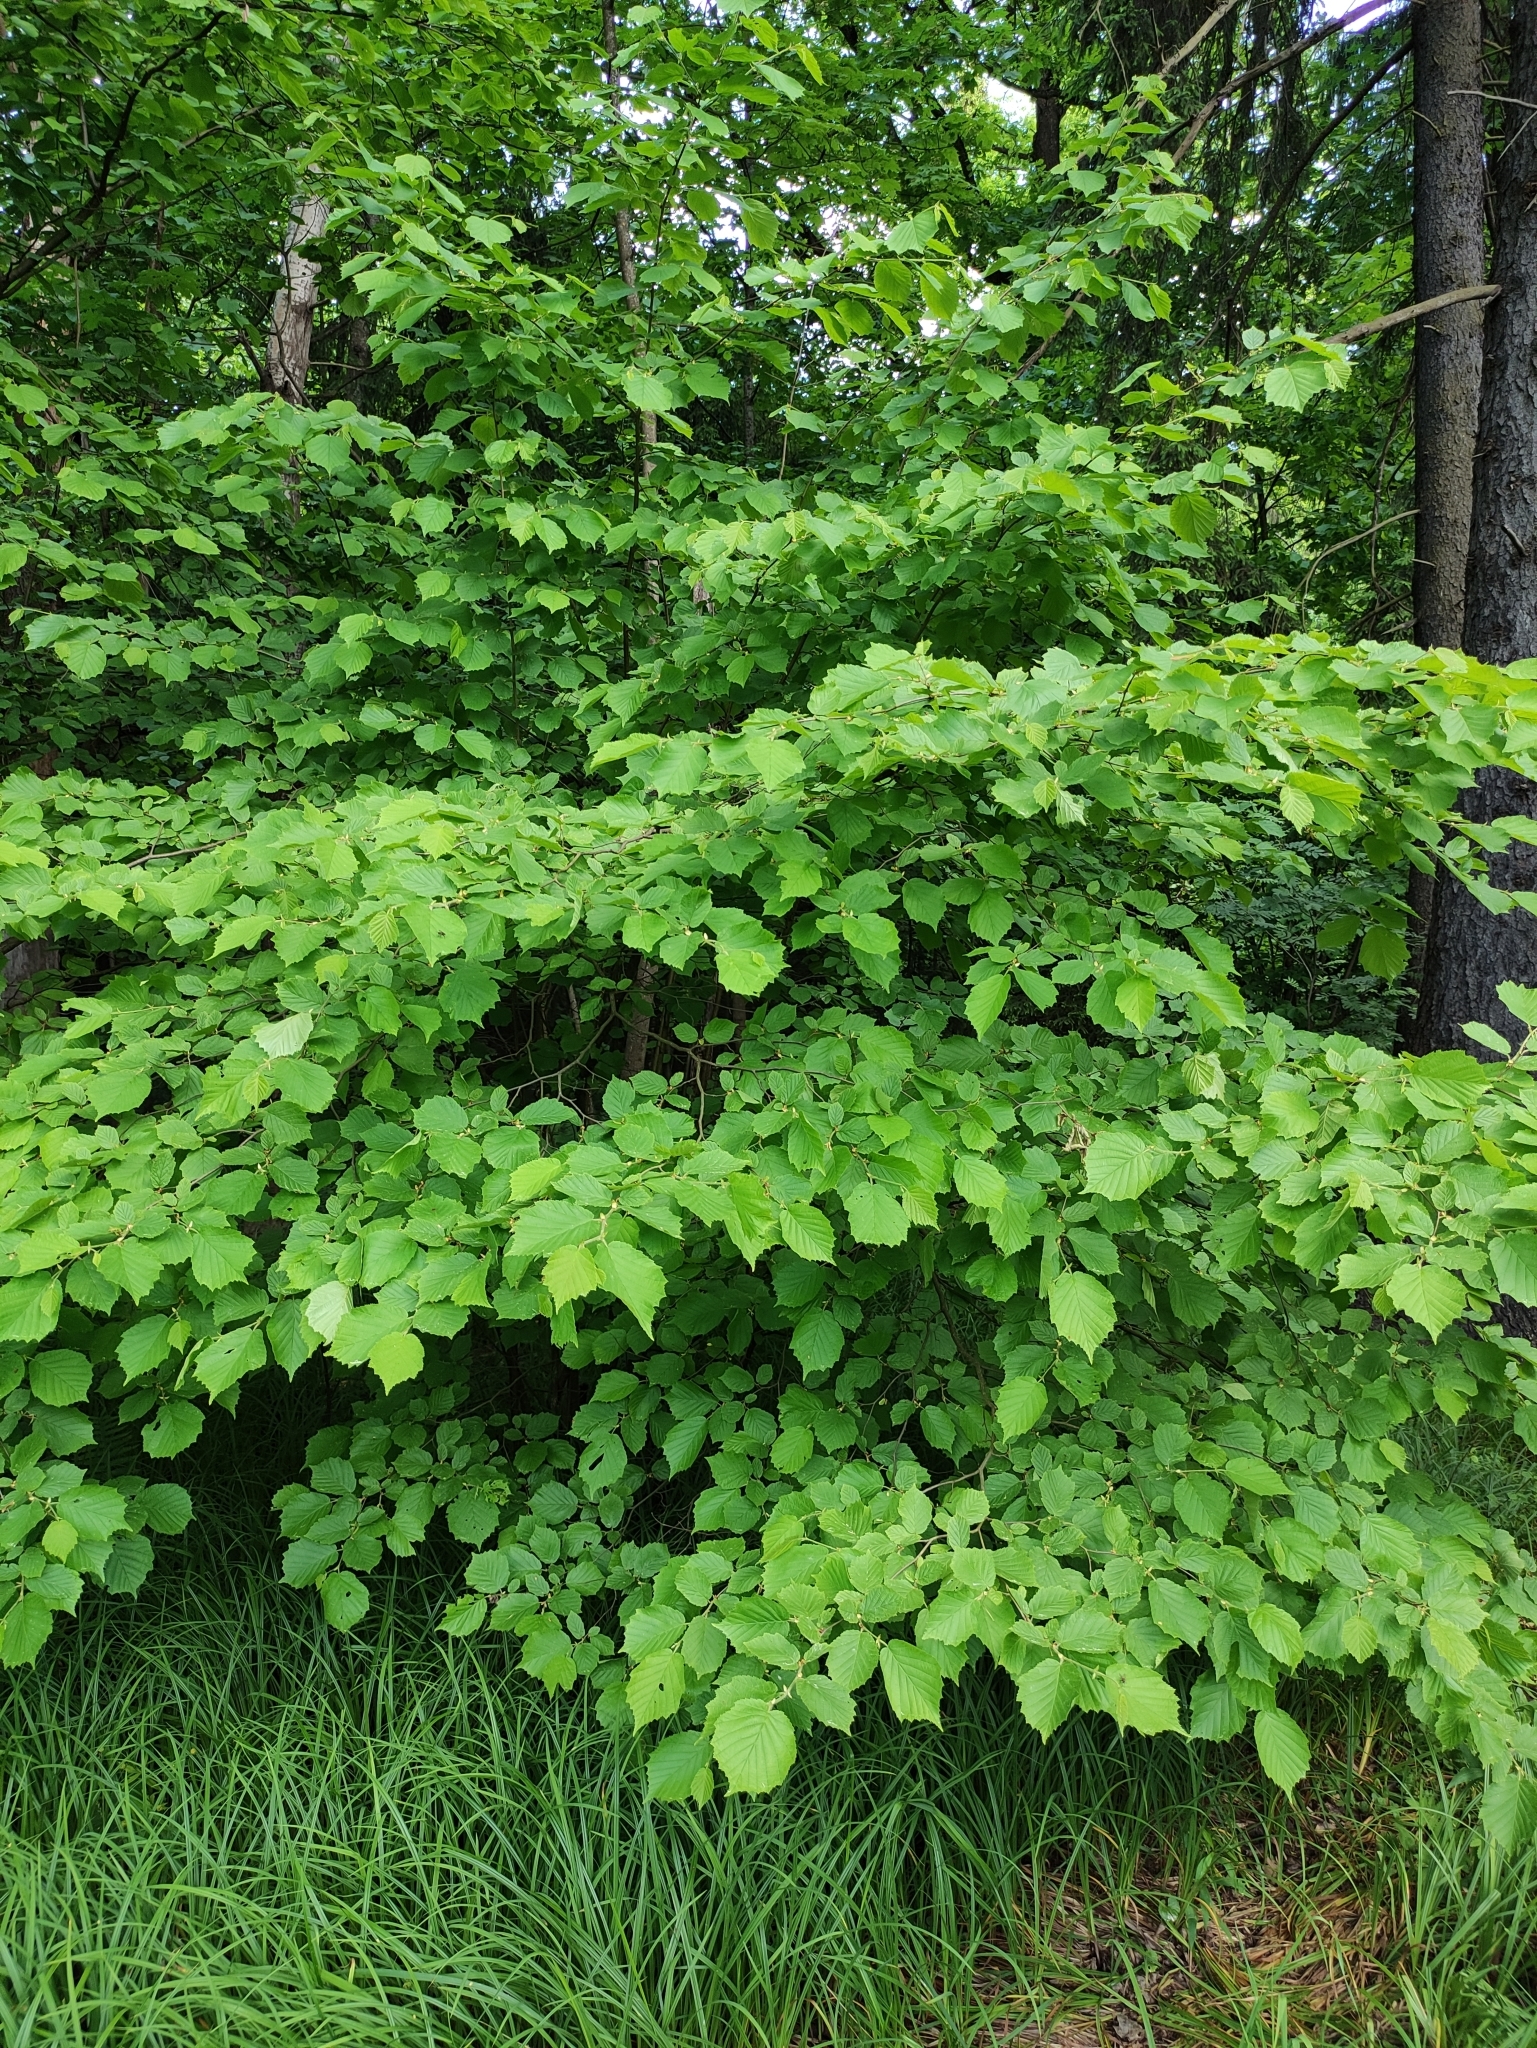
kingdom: Plantae
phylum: Tracheophyta
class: Magnoliopsida
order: Fagales
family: Betulaceae
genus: Corylus
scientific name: Corylus avellana
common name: European hazel
